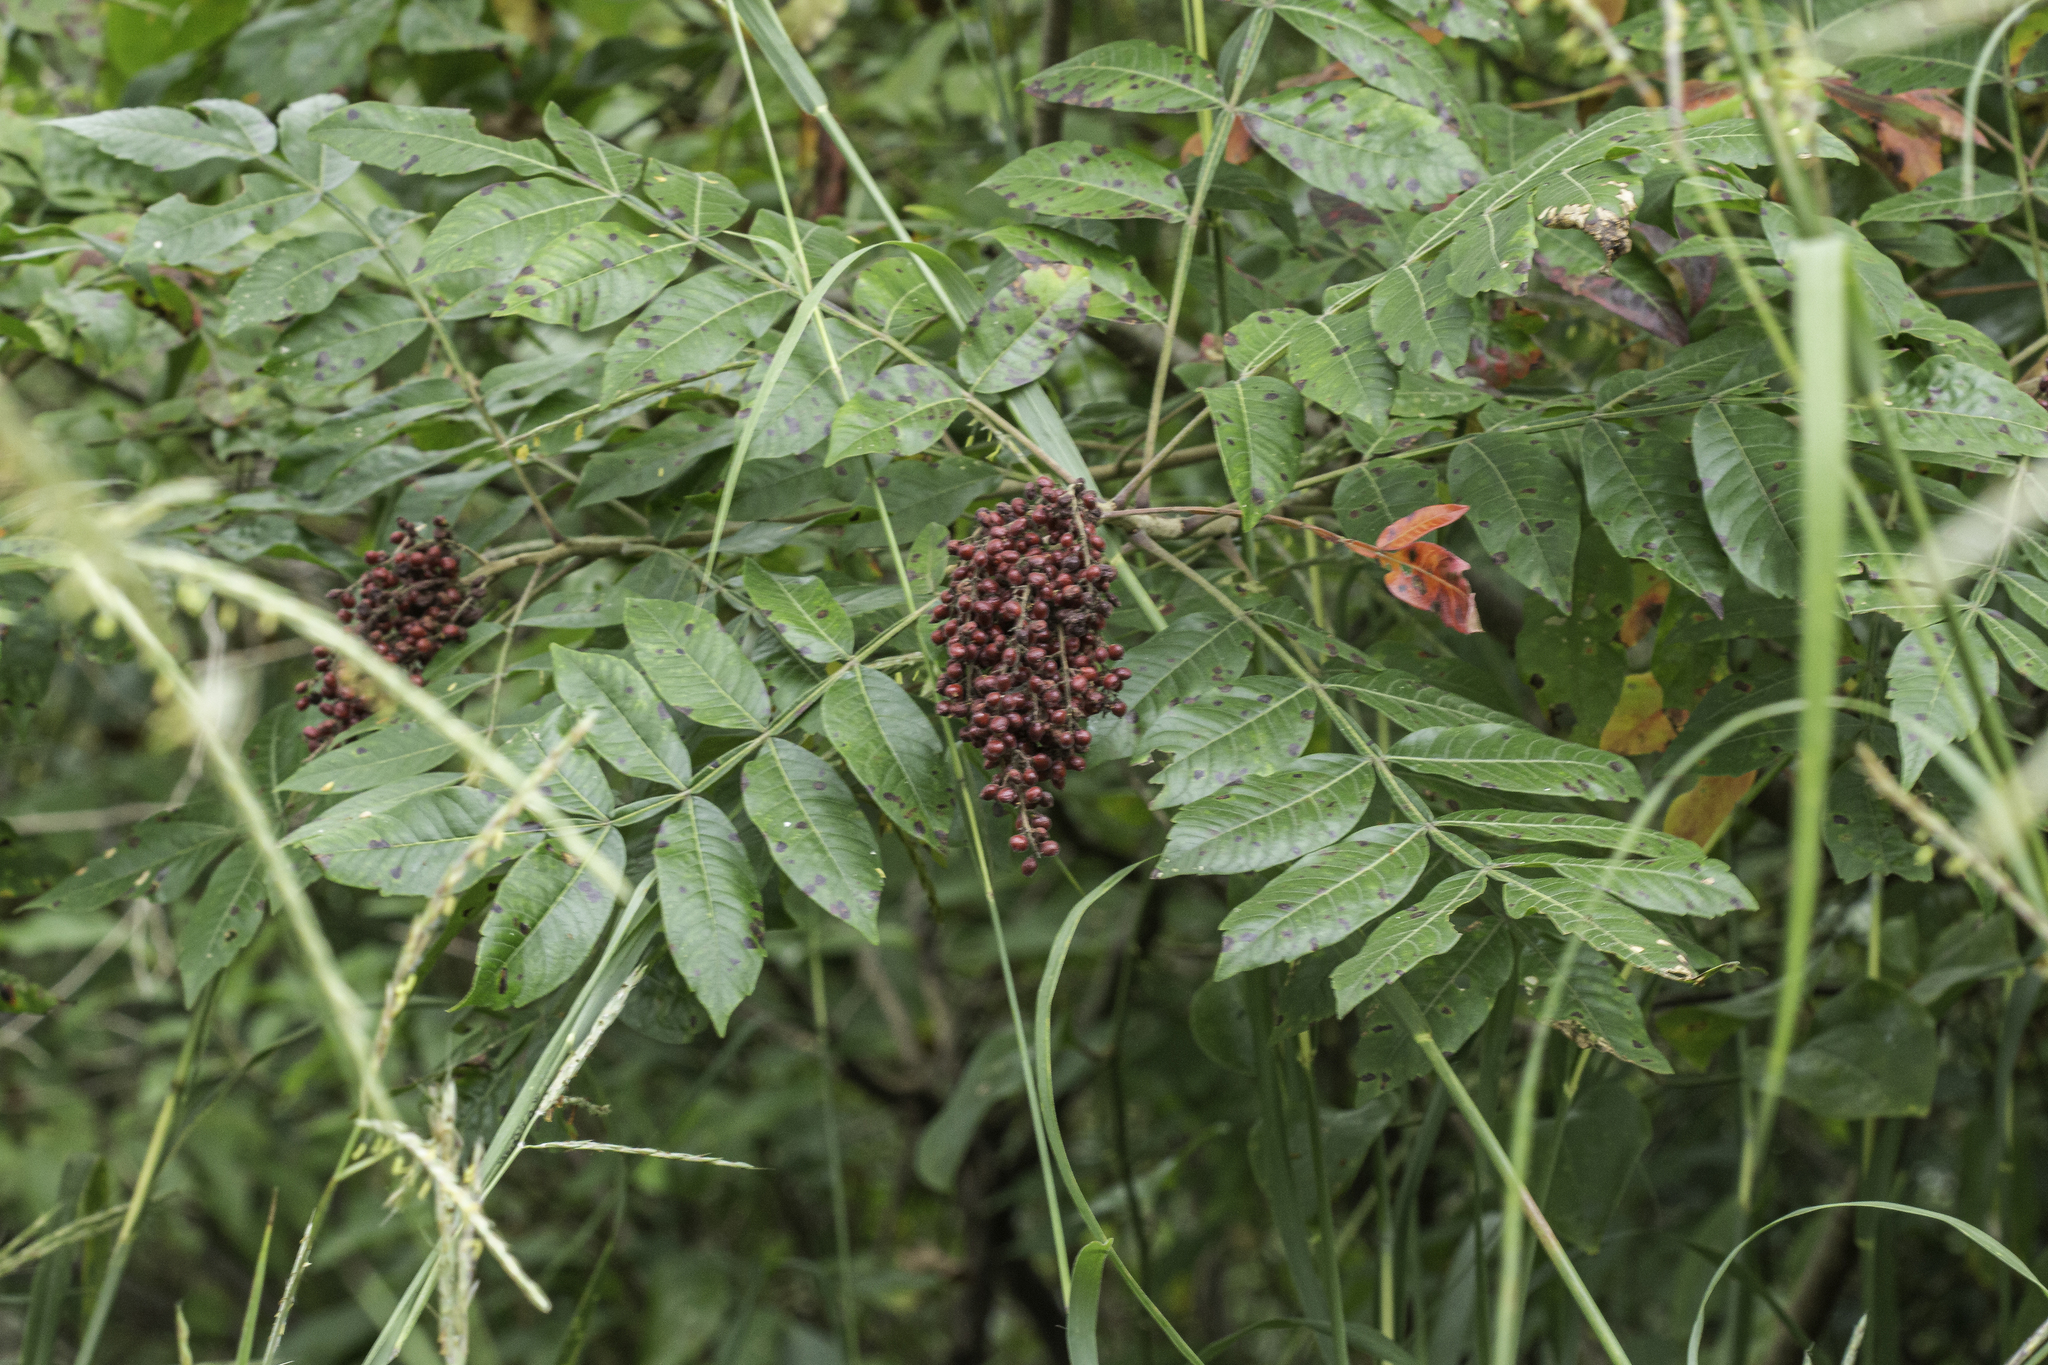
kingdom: Plantae
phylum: Tracheophyta
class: Magnoliopsida
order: Sapindales
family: Anacardiaceae
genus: Rhus
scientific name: Rhus copallina
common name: Shining sumac
